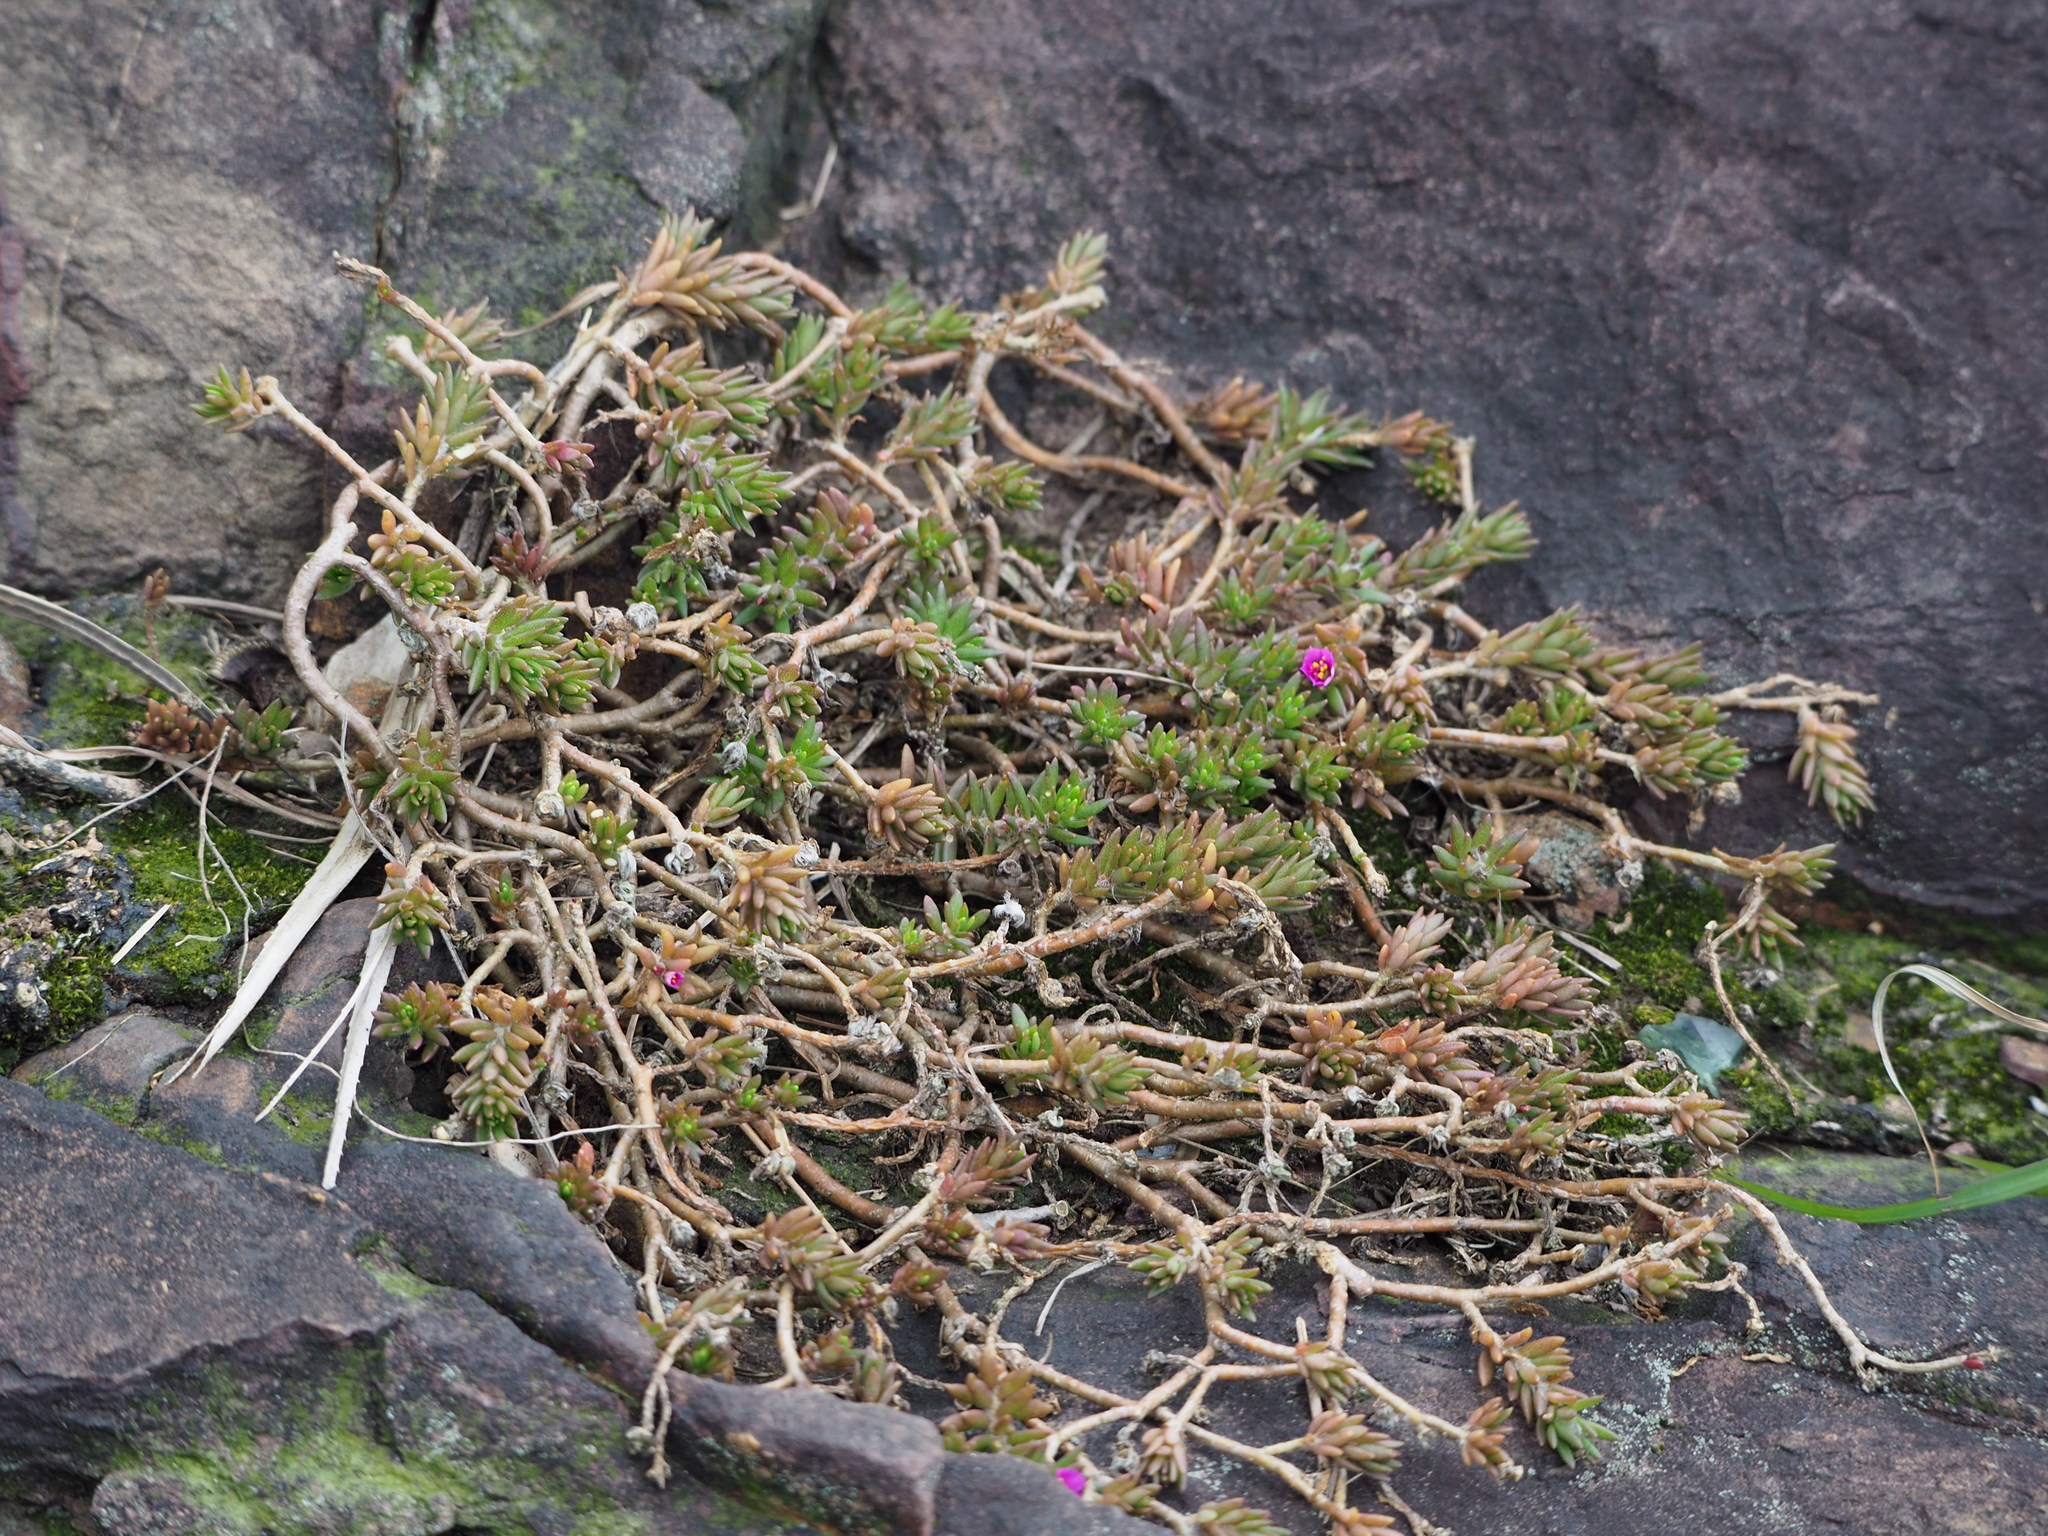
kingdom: Plantae
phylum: Tracheophyta
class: Magnoliopsida
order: Caryophyllales
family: Portulacaceae
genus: Portulaca
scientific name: Portulaca pilosa
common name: Kiss me quick
